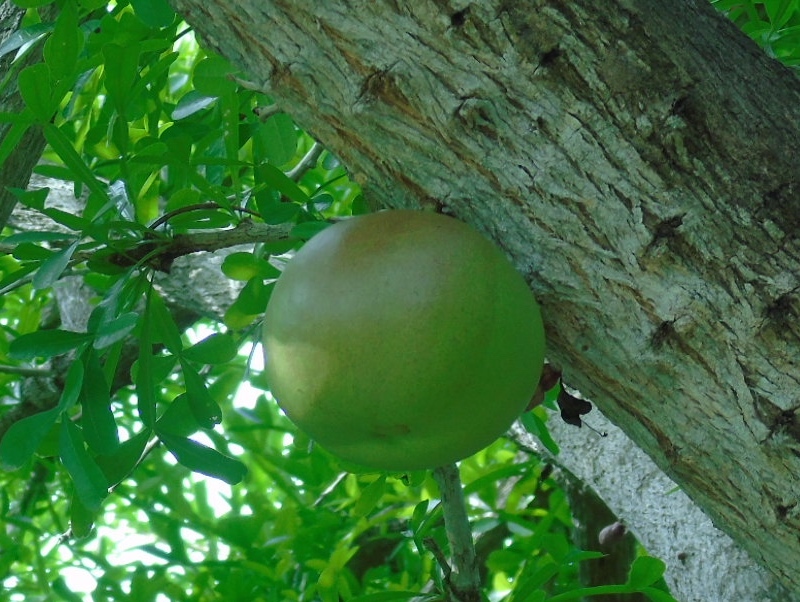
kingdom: Plantae
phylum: Tracheophyta
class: Magnoliopsida
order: Lamiales
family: Bignoniaceae
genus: Crescentia
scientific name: Crescentia alata
